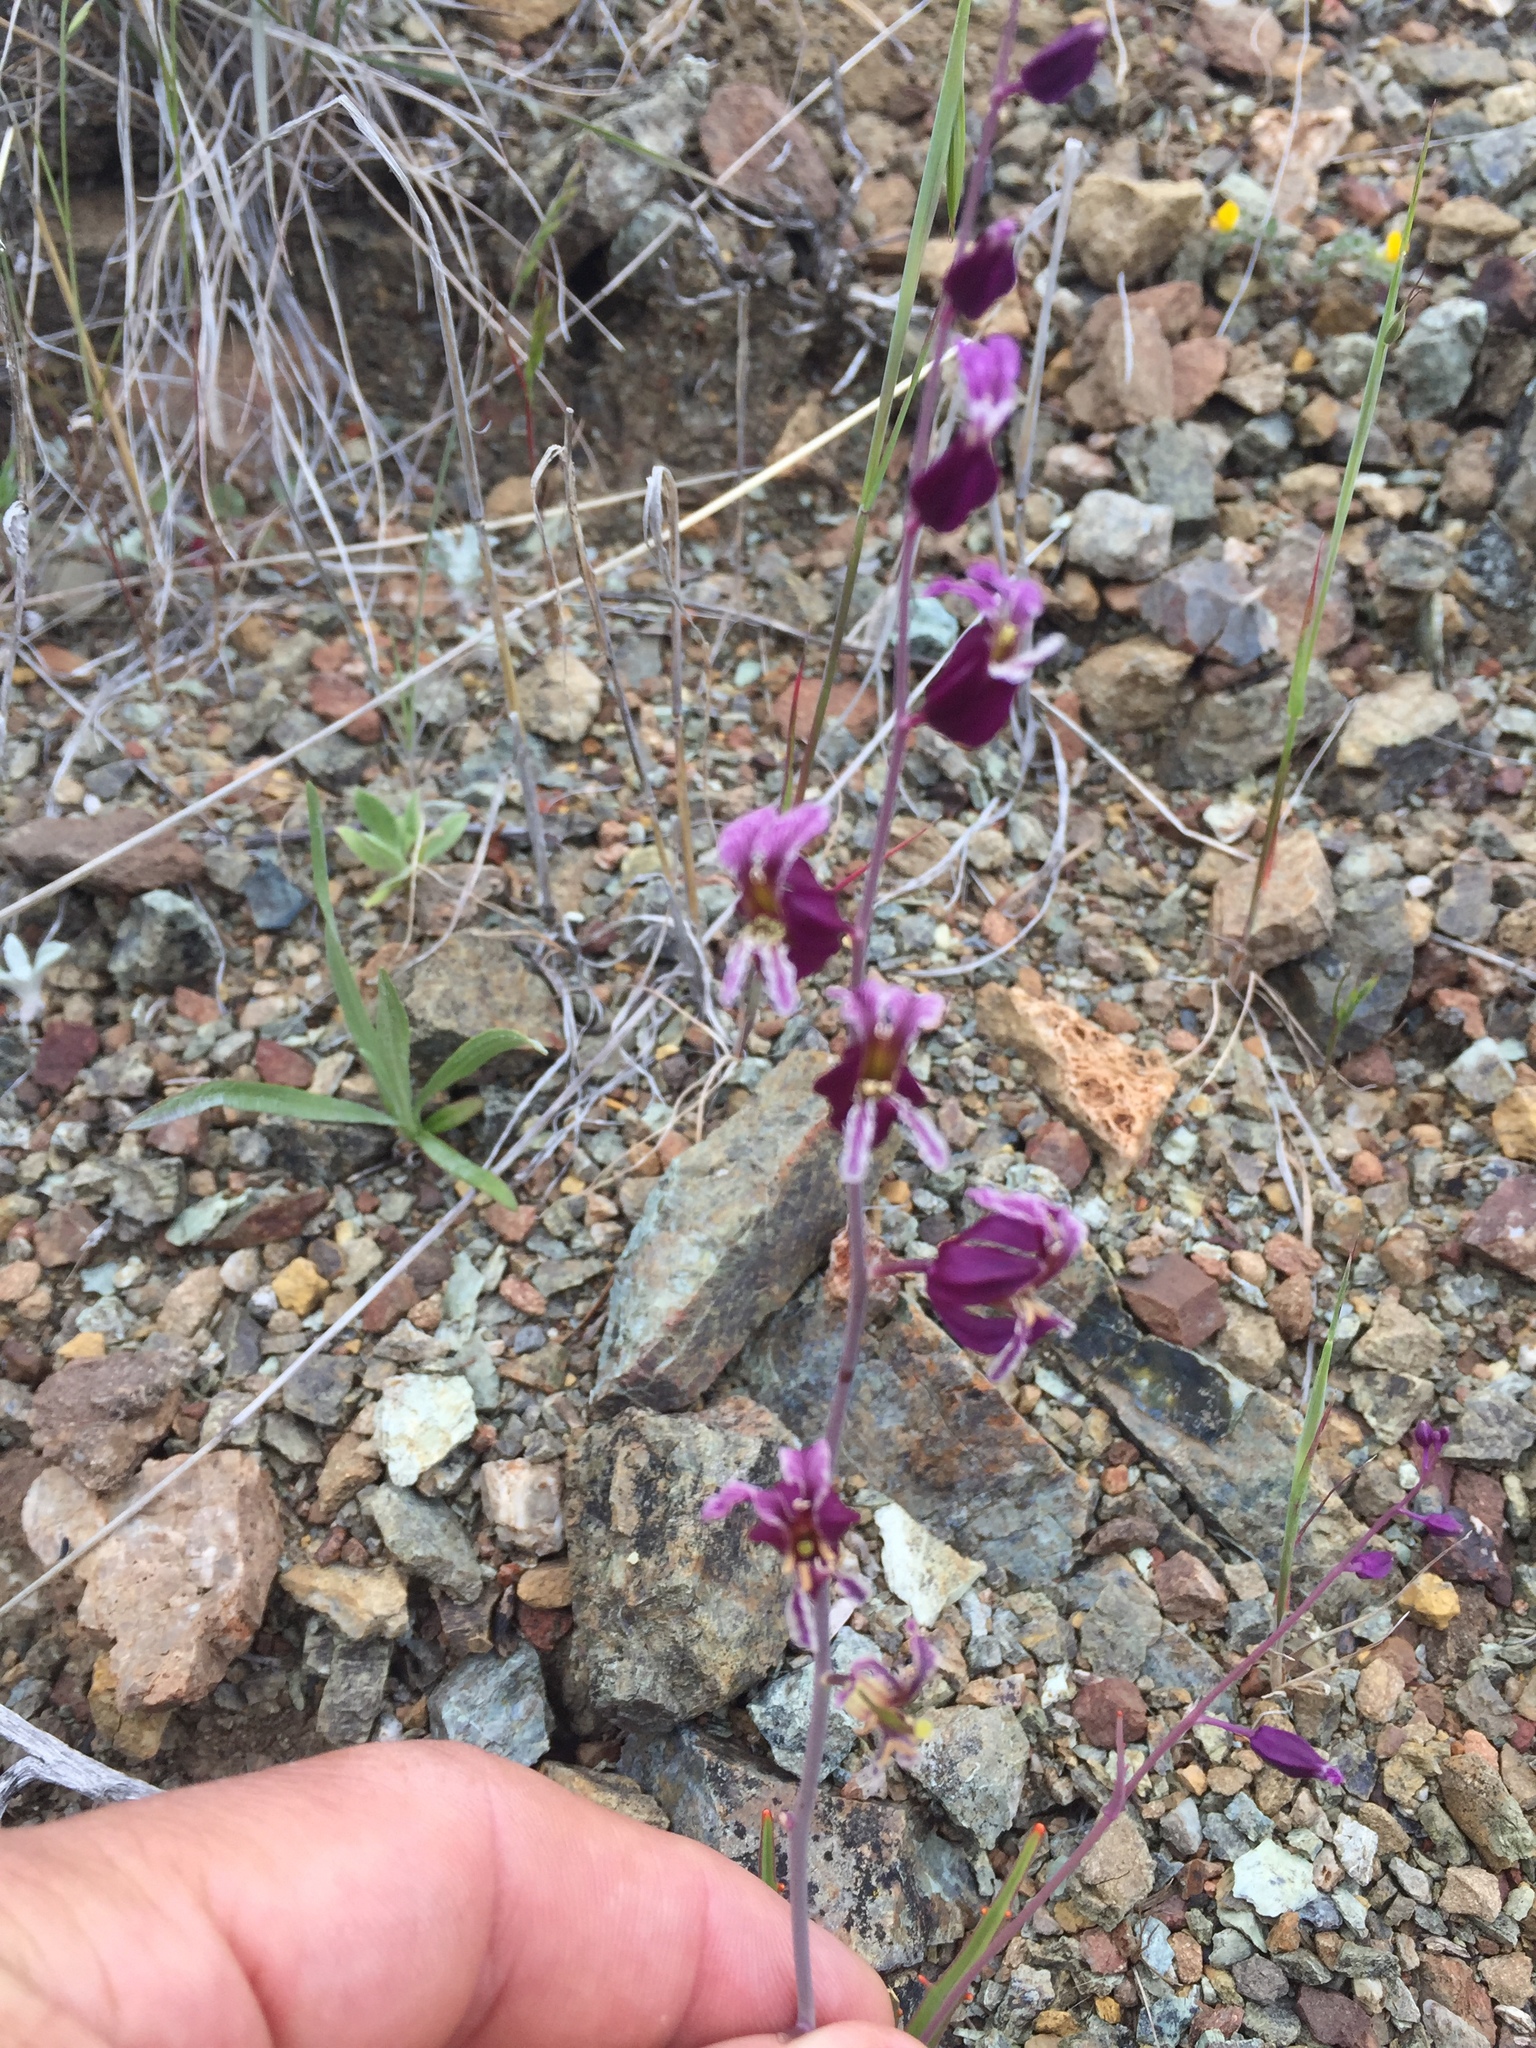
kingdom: Plantae
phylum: Tracheophyta
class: Magnoliopsida
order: Brassicales
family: Brassicaceae
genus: Streptanthus
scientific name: Streptanthus glandulosus
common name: Jewel-flower
